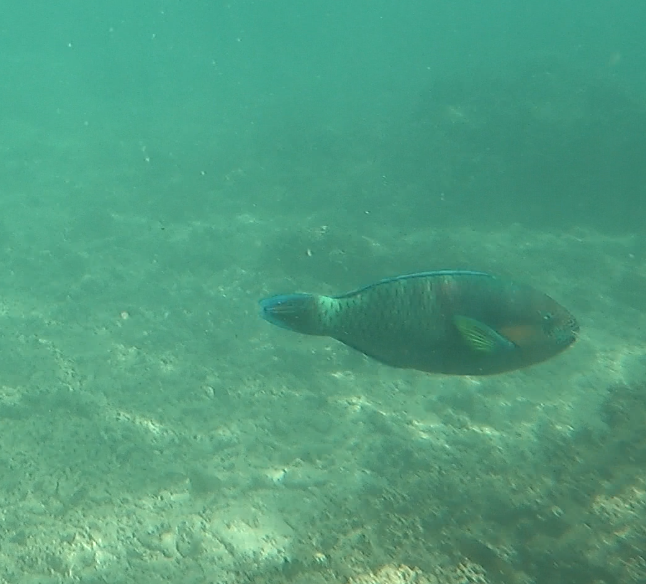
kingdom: Animalia
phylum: Chordata
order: Perciformes
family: Scaridae
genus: Scarus
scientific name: Scarus rivulatus
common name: Surf parrotfish
